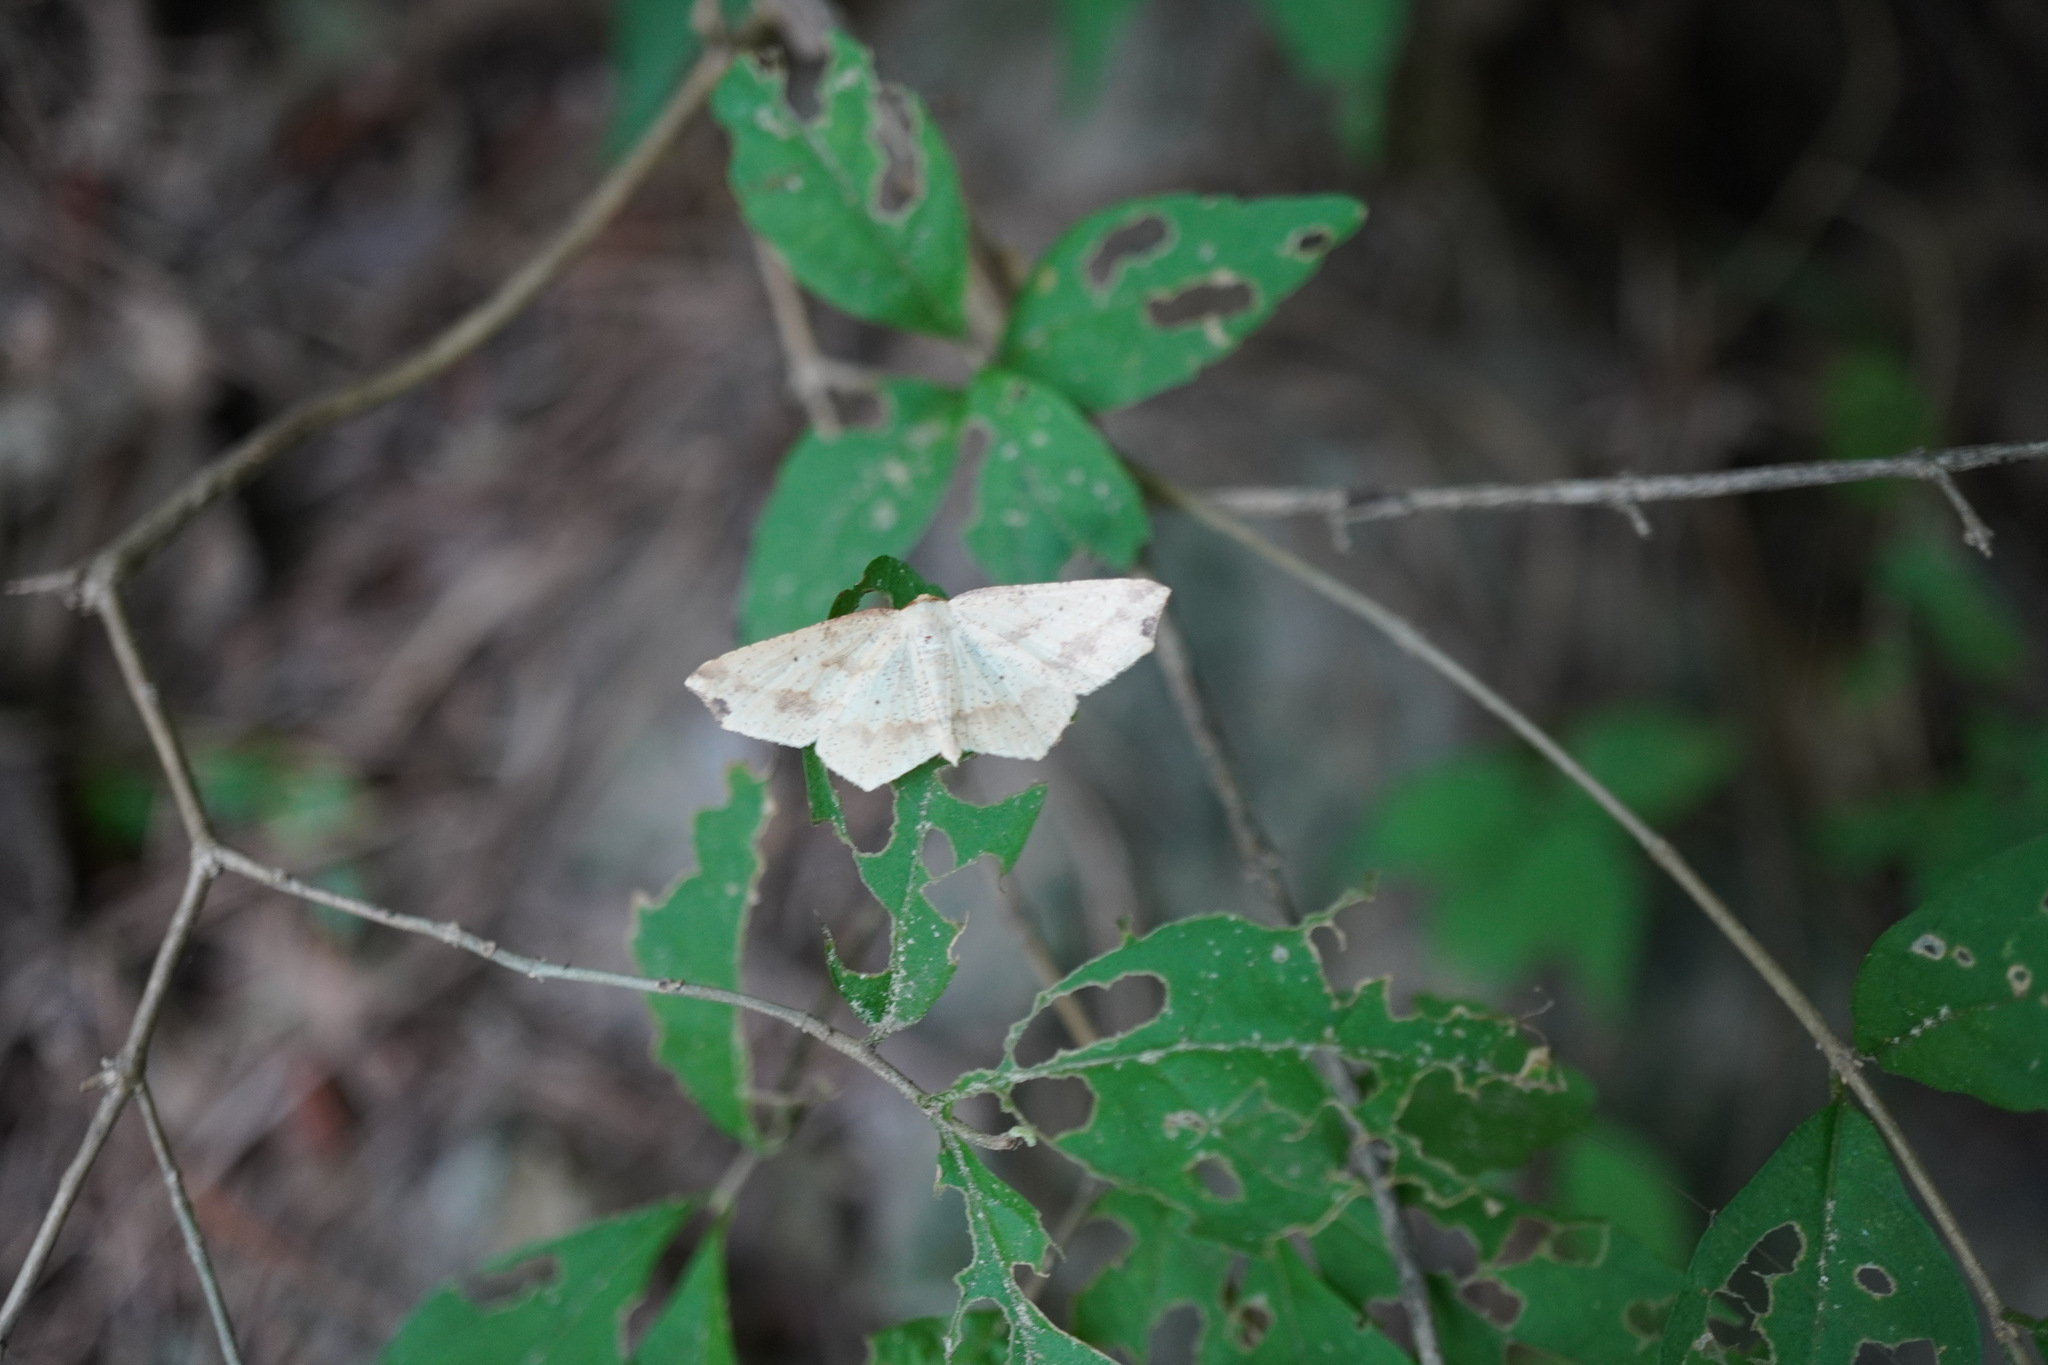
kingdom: Animalia
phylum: Arthropoda
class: Insecta
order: Lepidoptera
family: Geometridae
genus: Pareclipsis
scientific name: Pareclipsis gracilis
